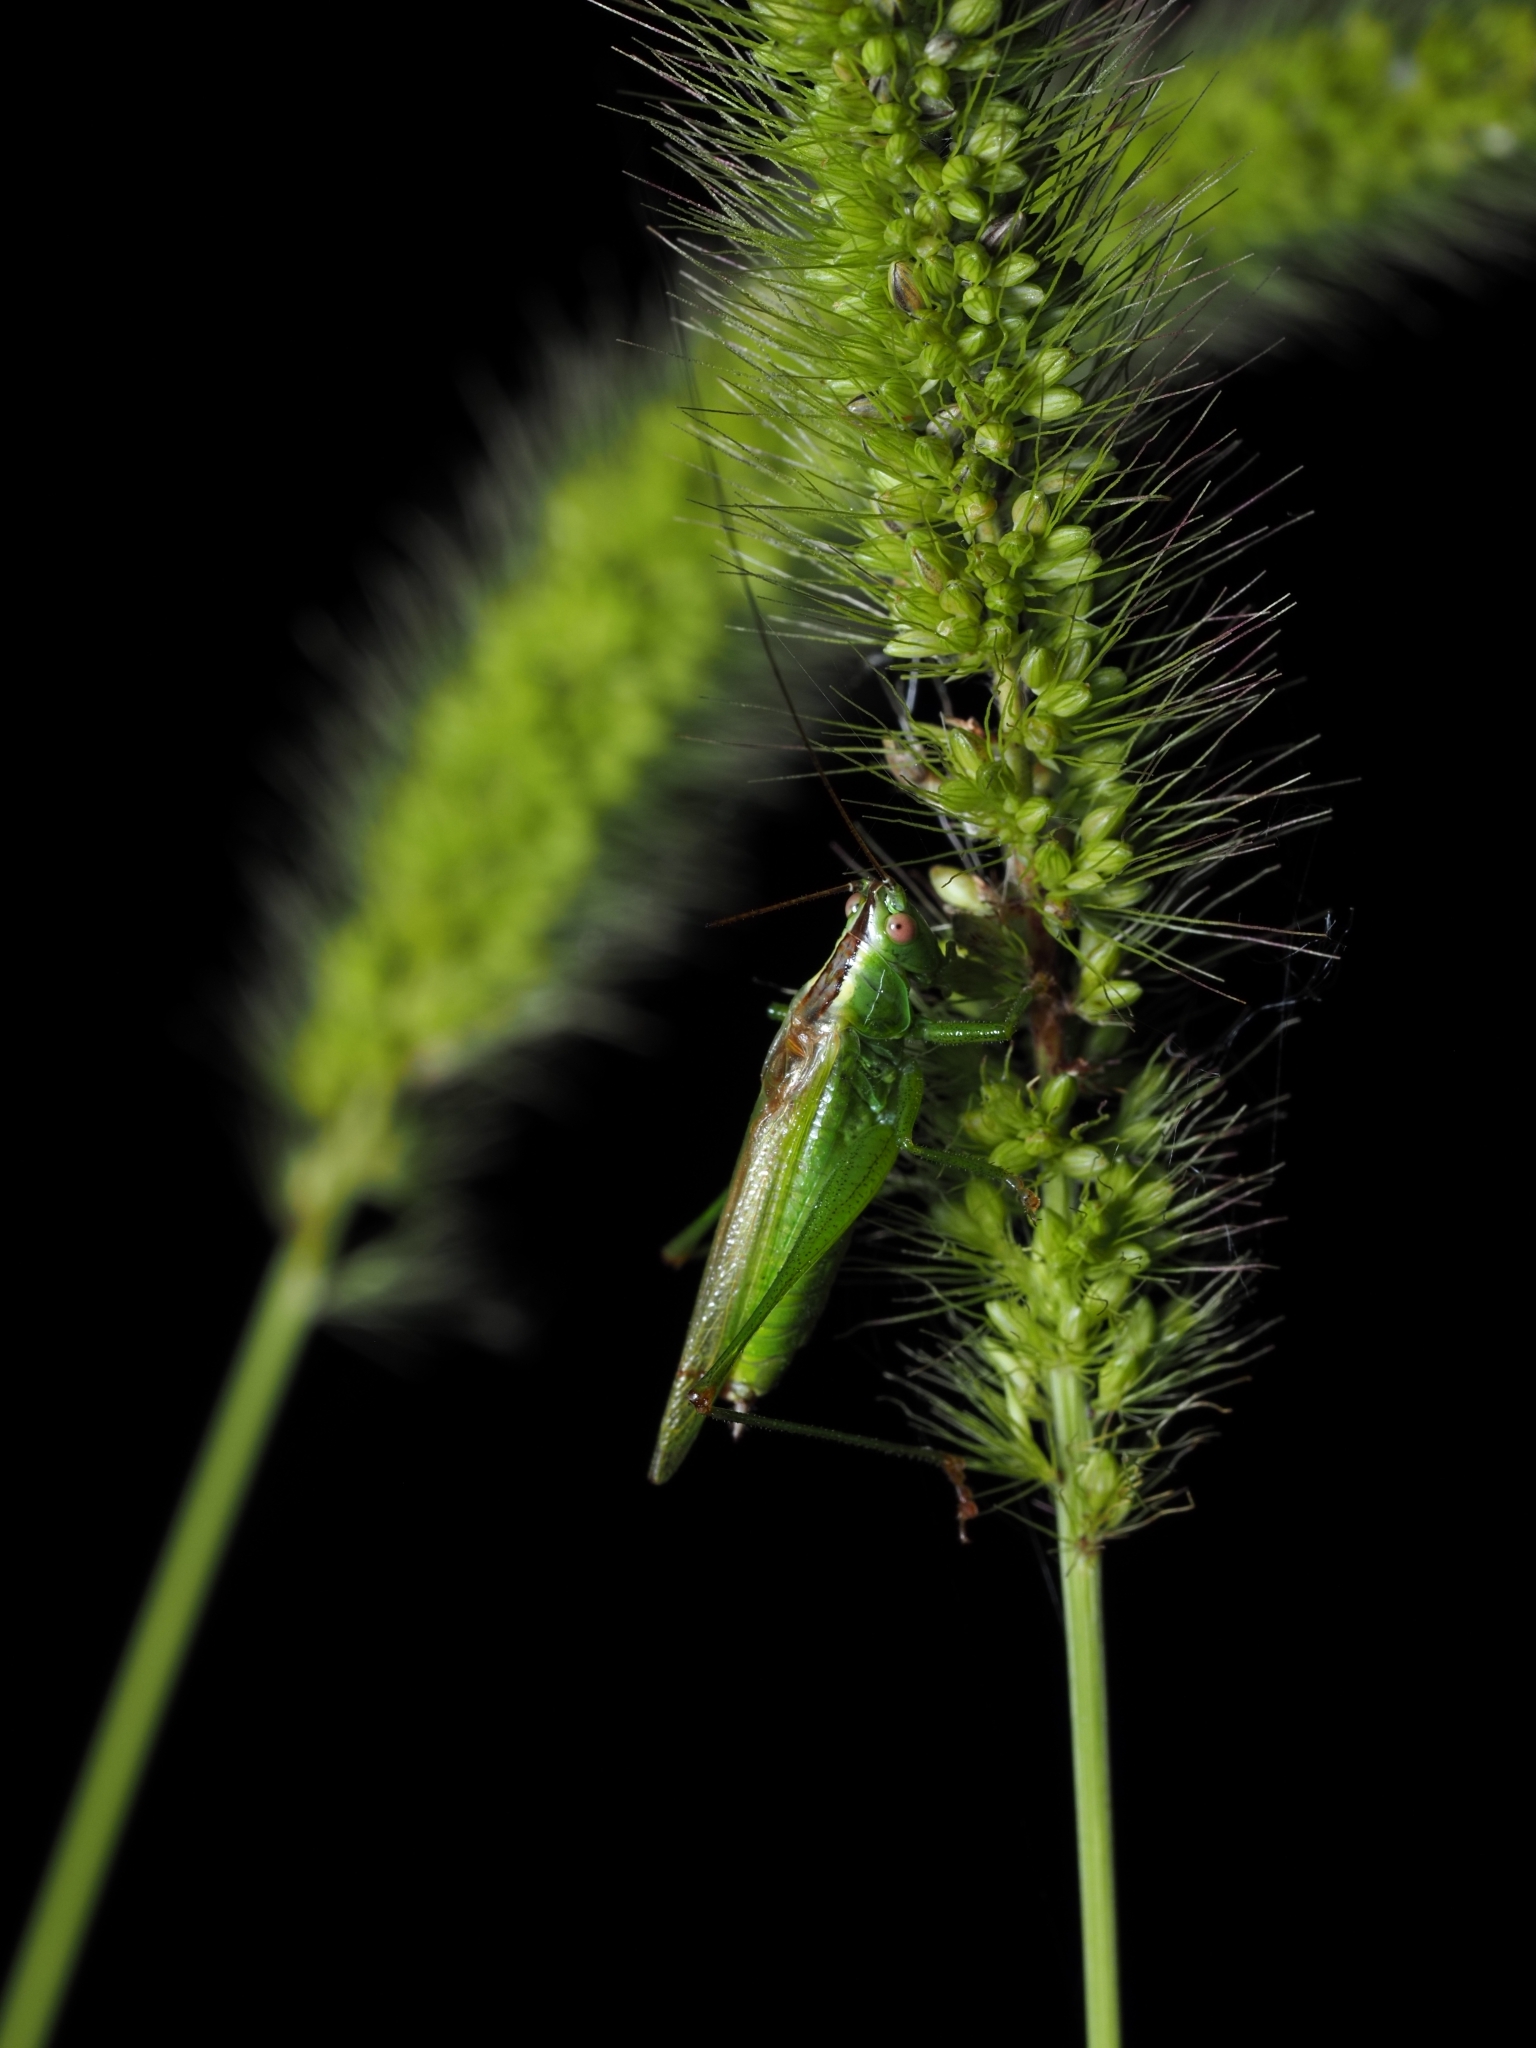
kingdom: Animalia
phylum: Arthropoda
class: Insecta
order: Orthoptera
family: Tettigoniidae
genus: Conocephalus
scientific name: Conocephalus fuscus
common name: Long-winged conehead
